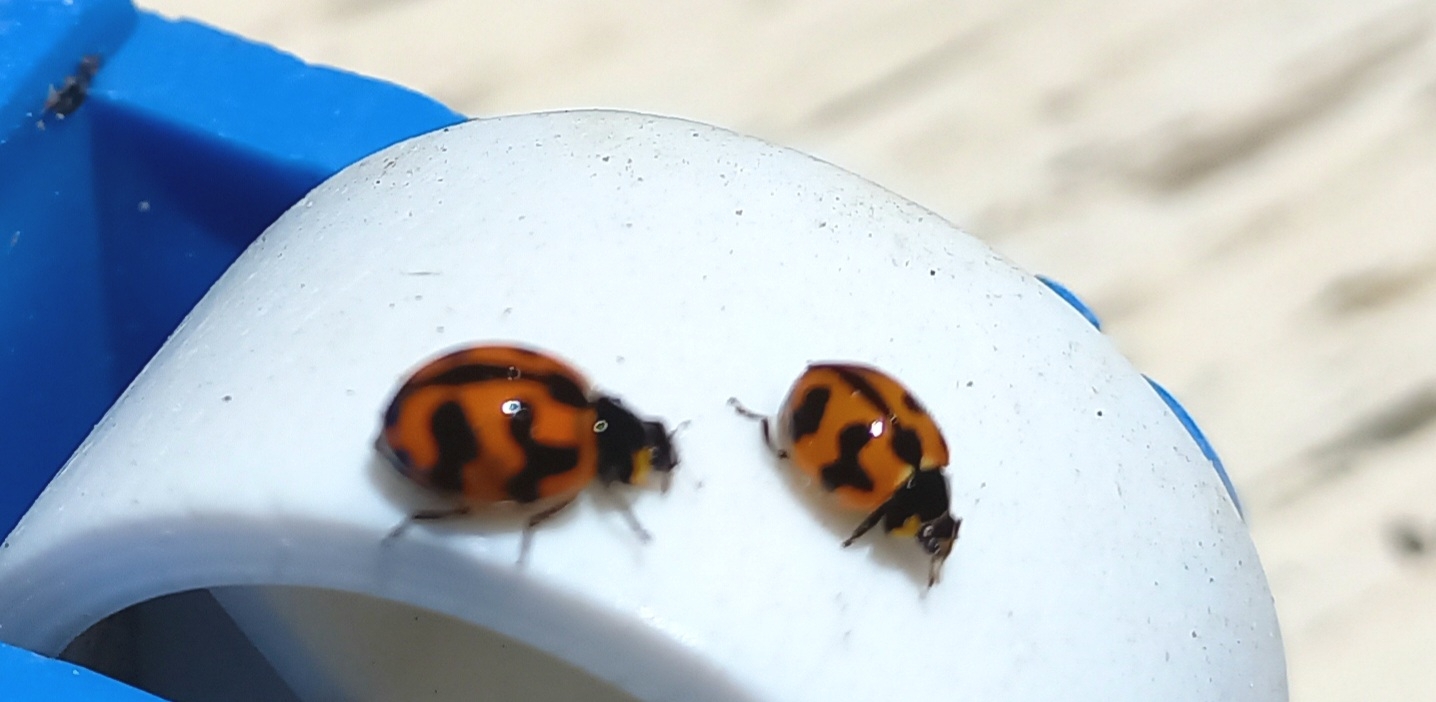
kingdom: Animalia
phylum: Arthropoda
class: Insecta
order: Coleoptera
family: Coccinellidae
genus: Coccinella
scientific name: Coccinella transversalis
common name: Transverse lady beetle
